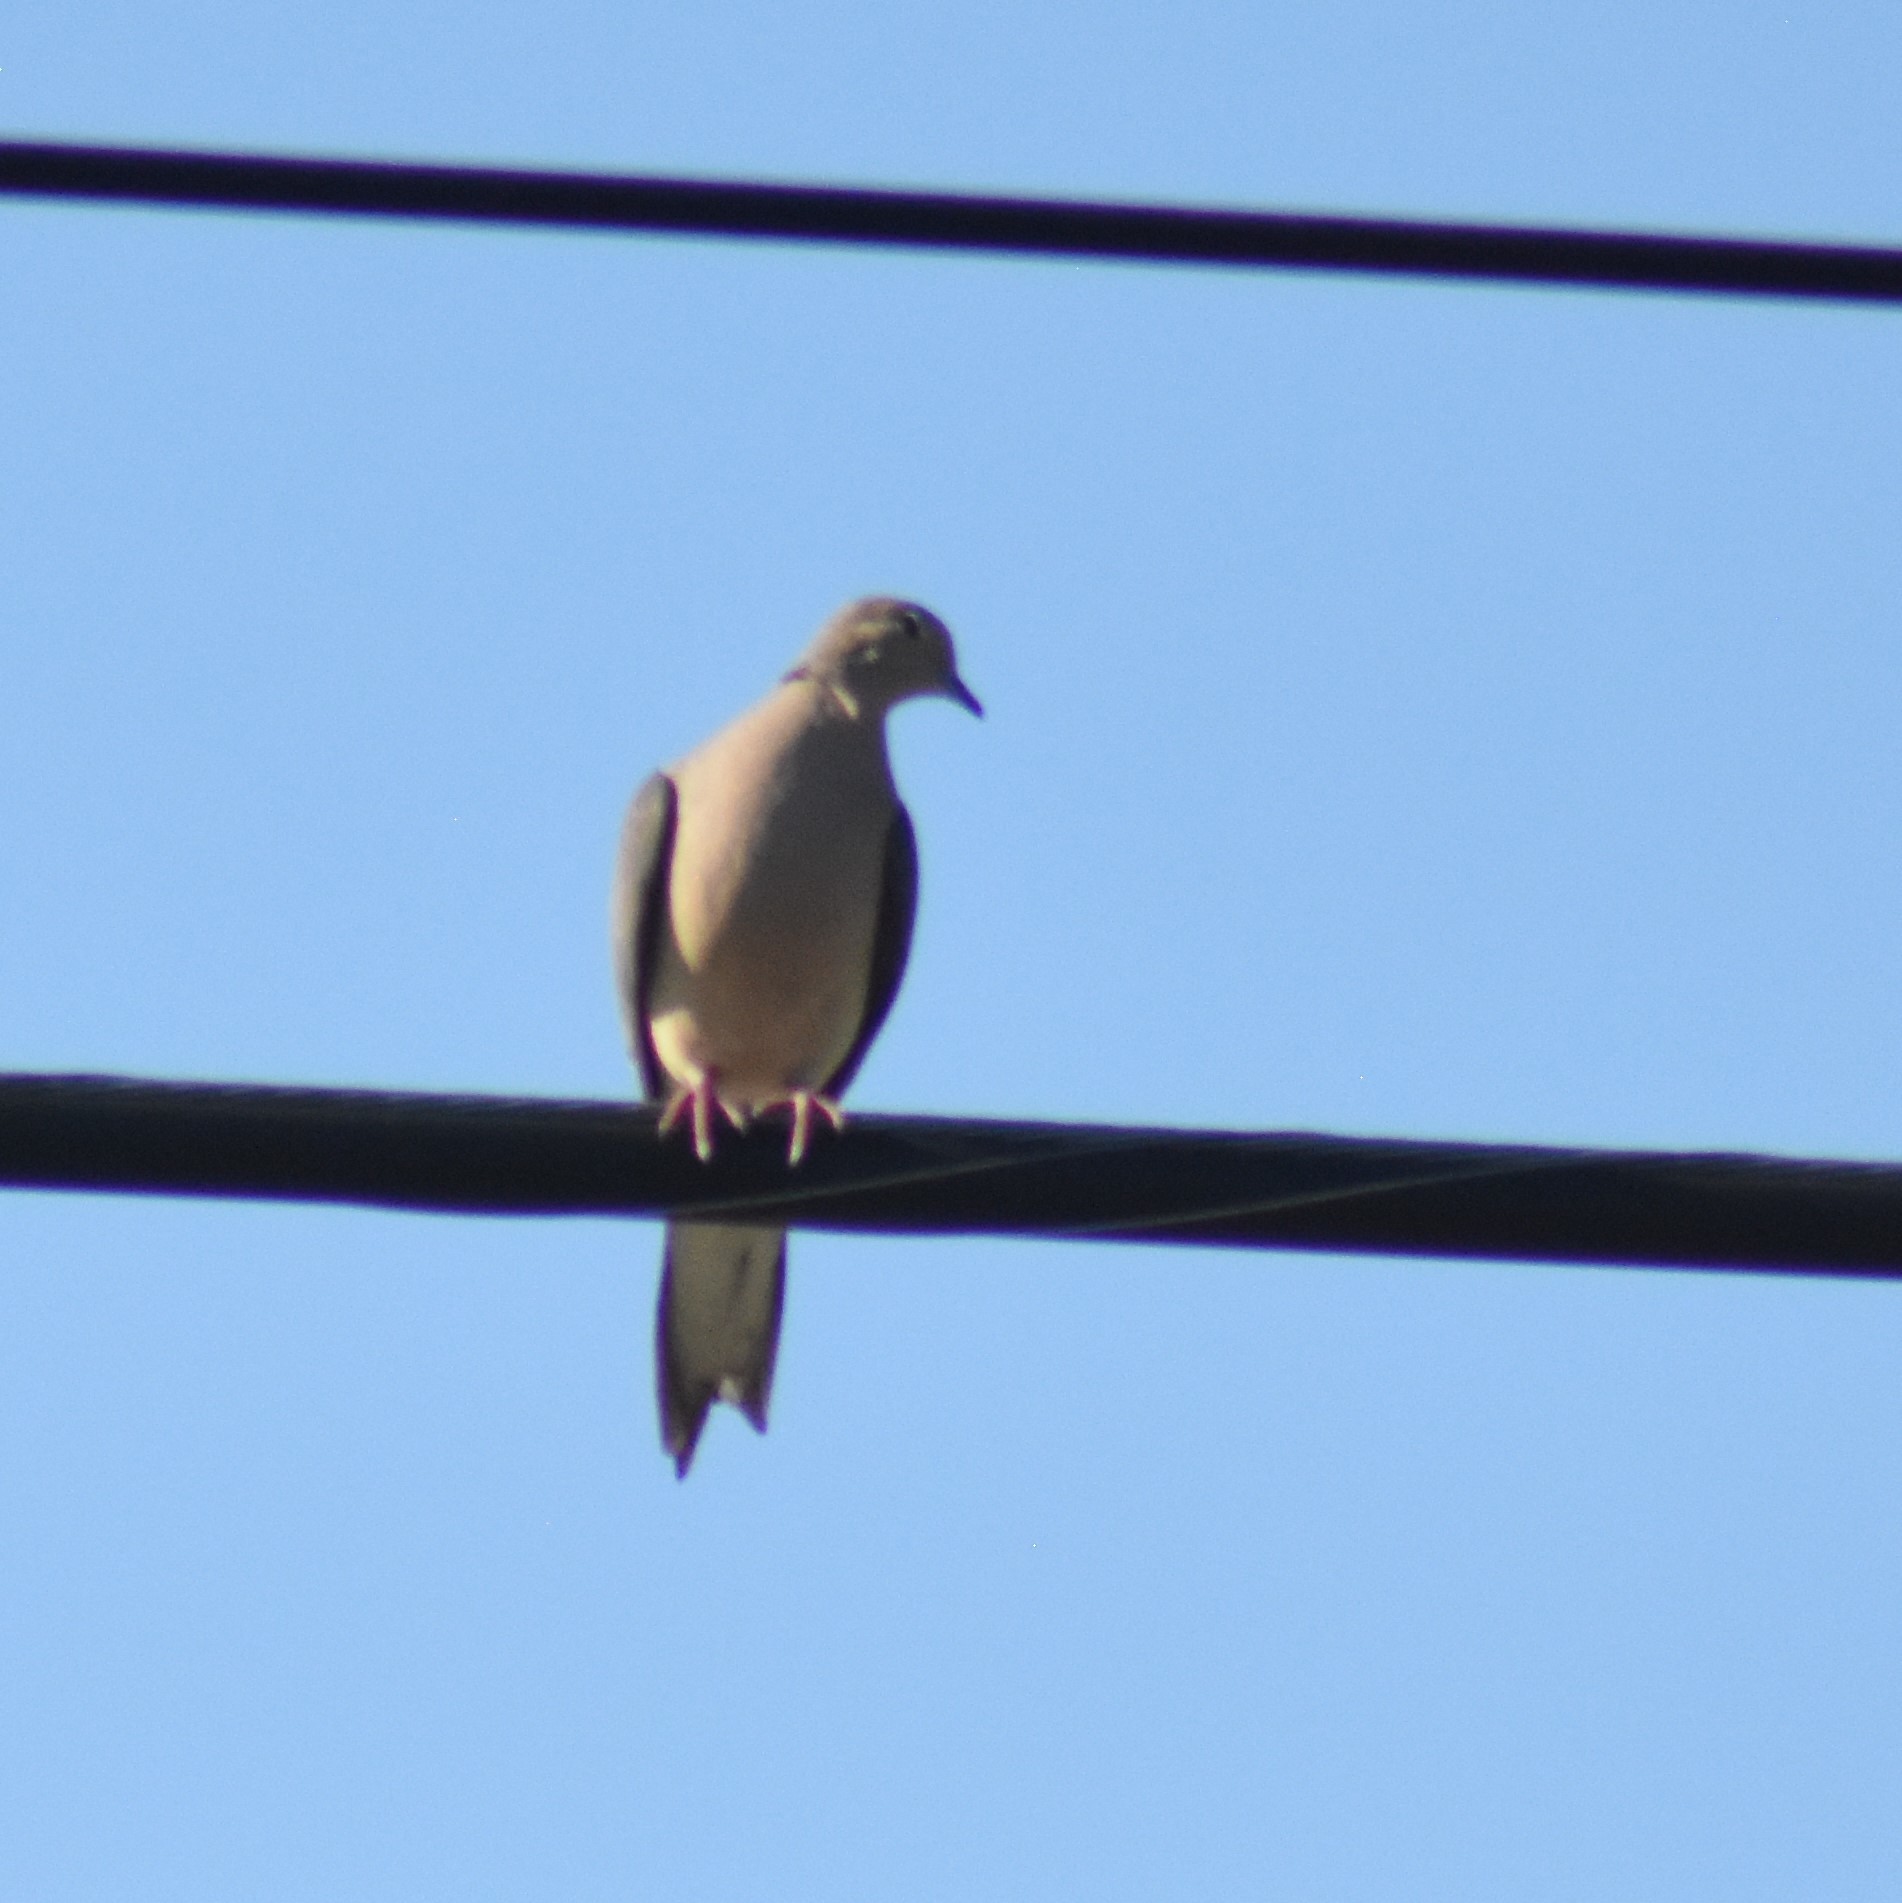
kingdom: Animalia
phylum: Chordata
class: Aves
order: Columbiformes
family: Columbidae
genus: Zenaida
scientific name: Zenaida macroura
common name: Mourning dove
